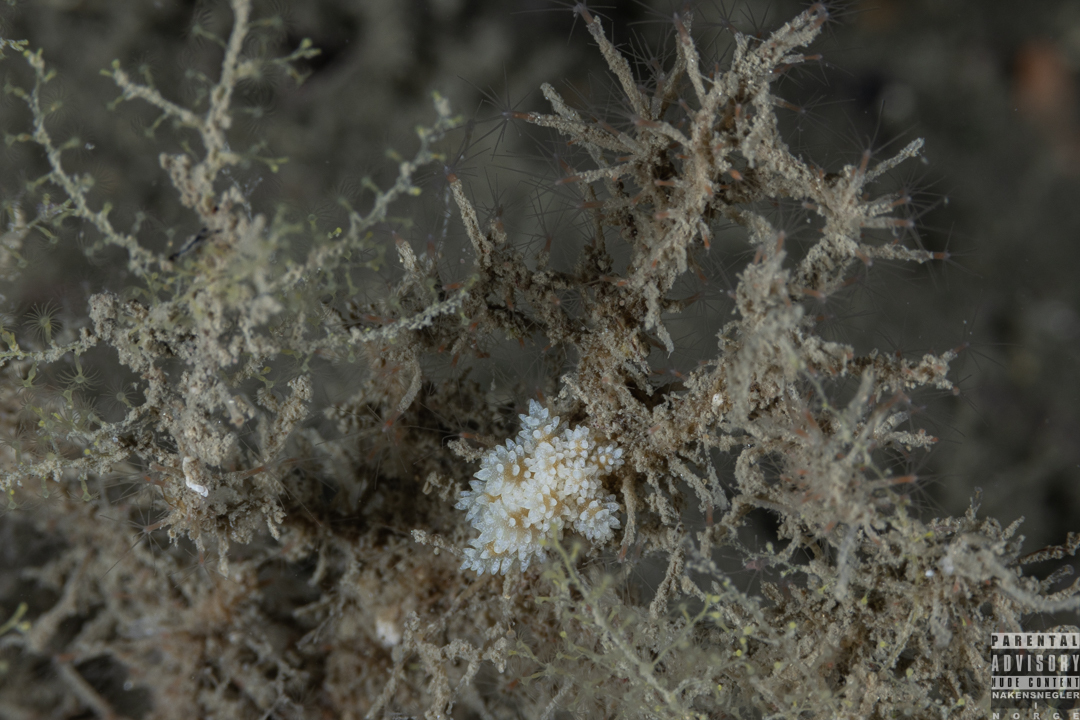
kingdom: Animalia
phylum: Mollusca
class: Gastropoda
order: Nudibranchia
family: Dotidae
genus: Doto
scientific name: Doto fragilis
